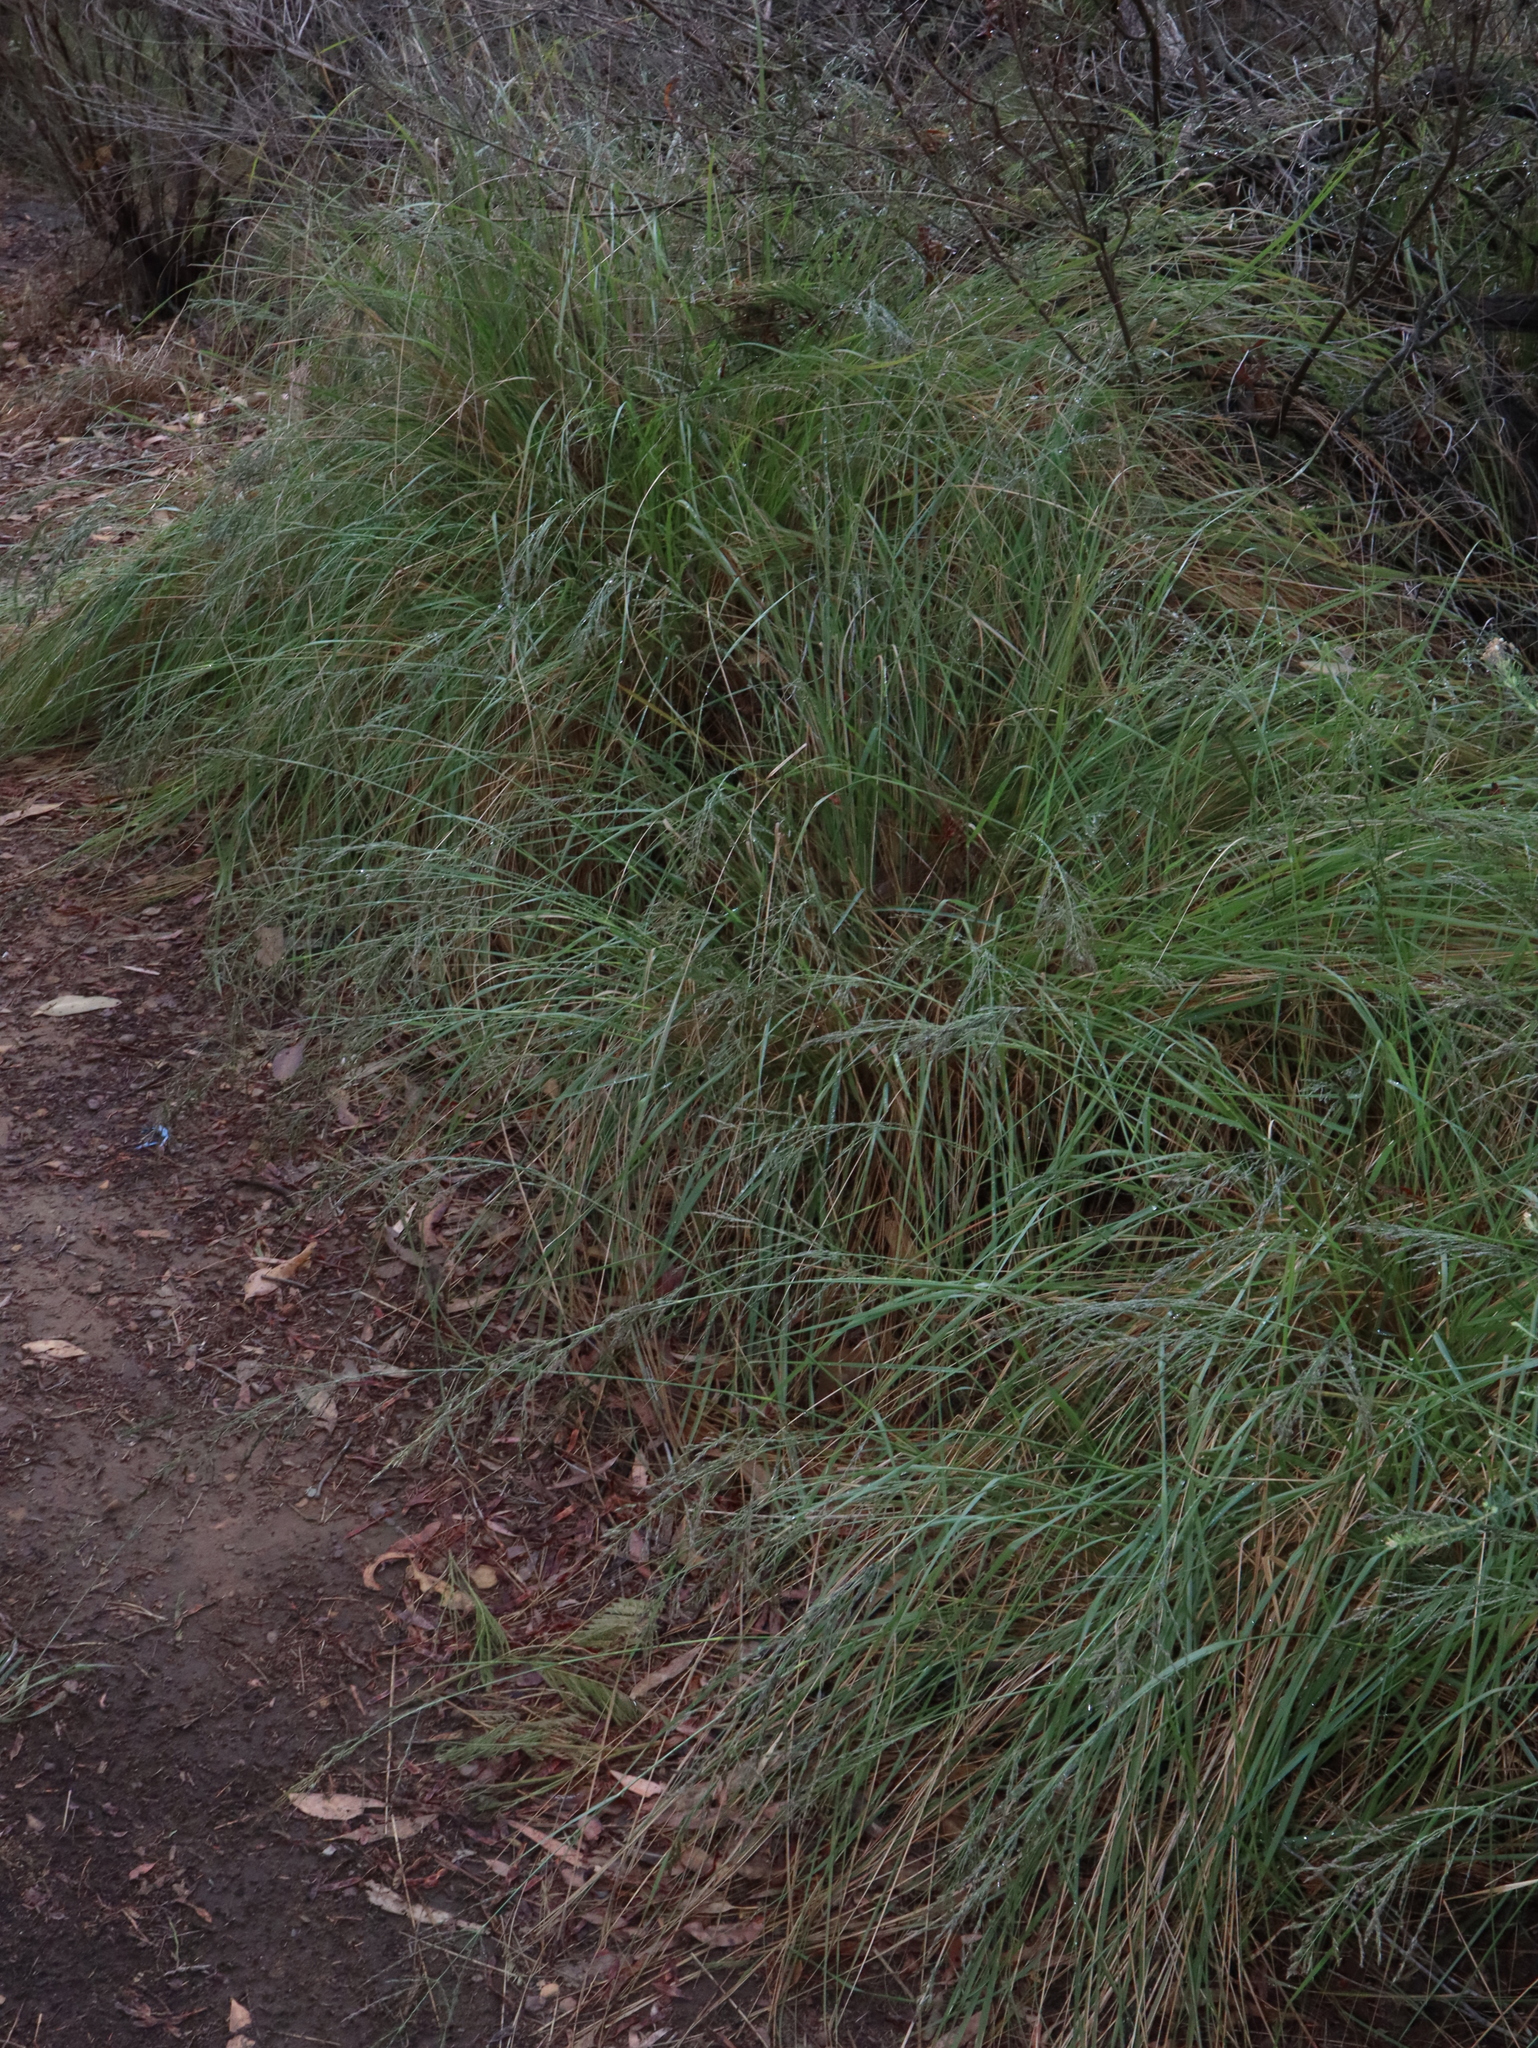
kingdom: Plantae
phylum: Tracheophyta
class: Liliopsida
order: Poales
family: Poaceae
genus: Eragrostis
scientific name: Eragrostis curvula
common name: African love-grass
